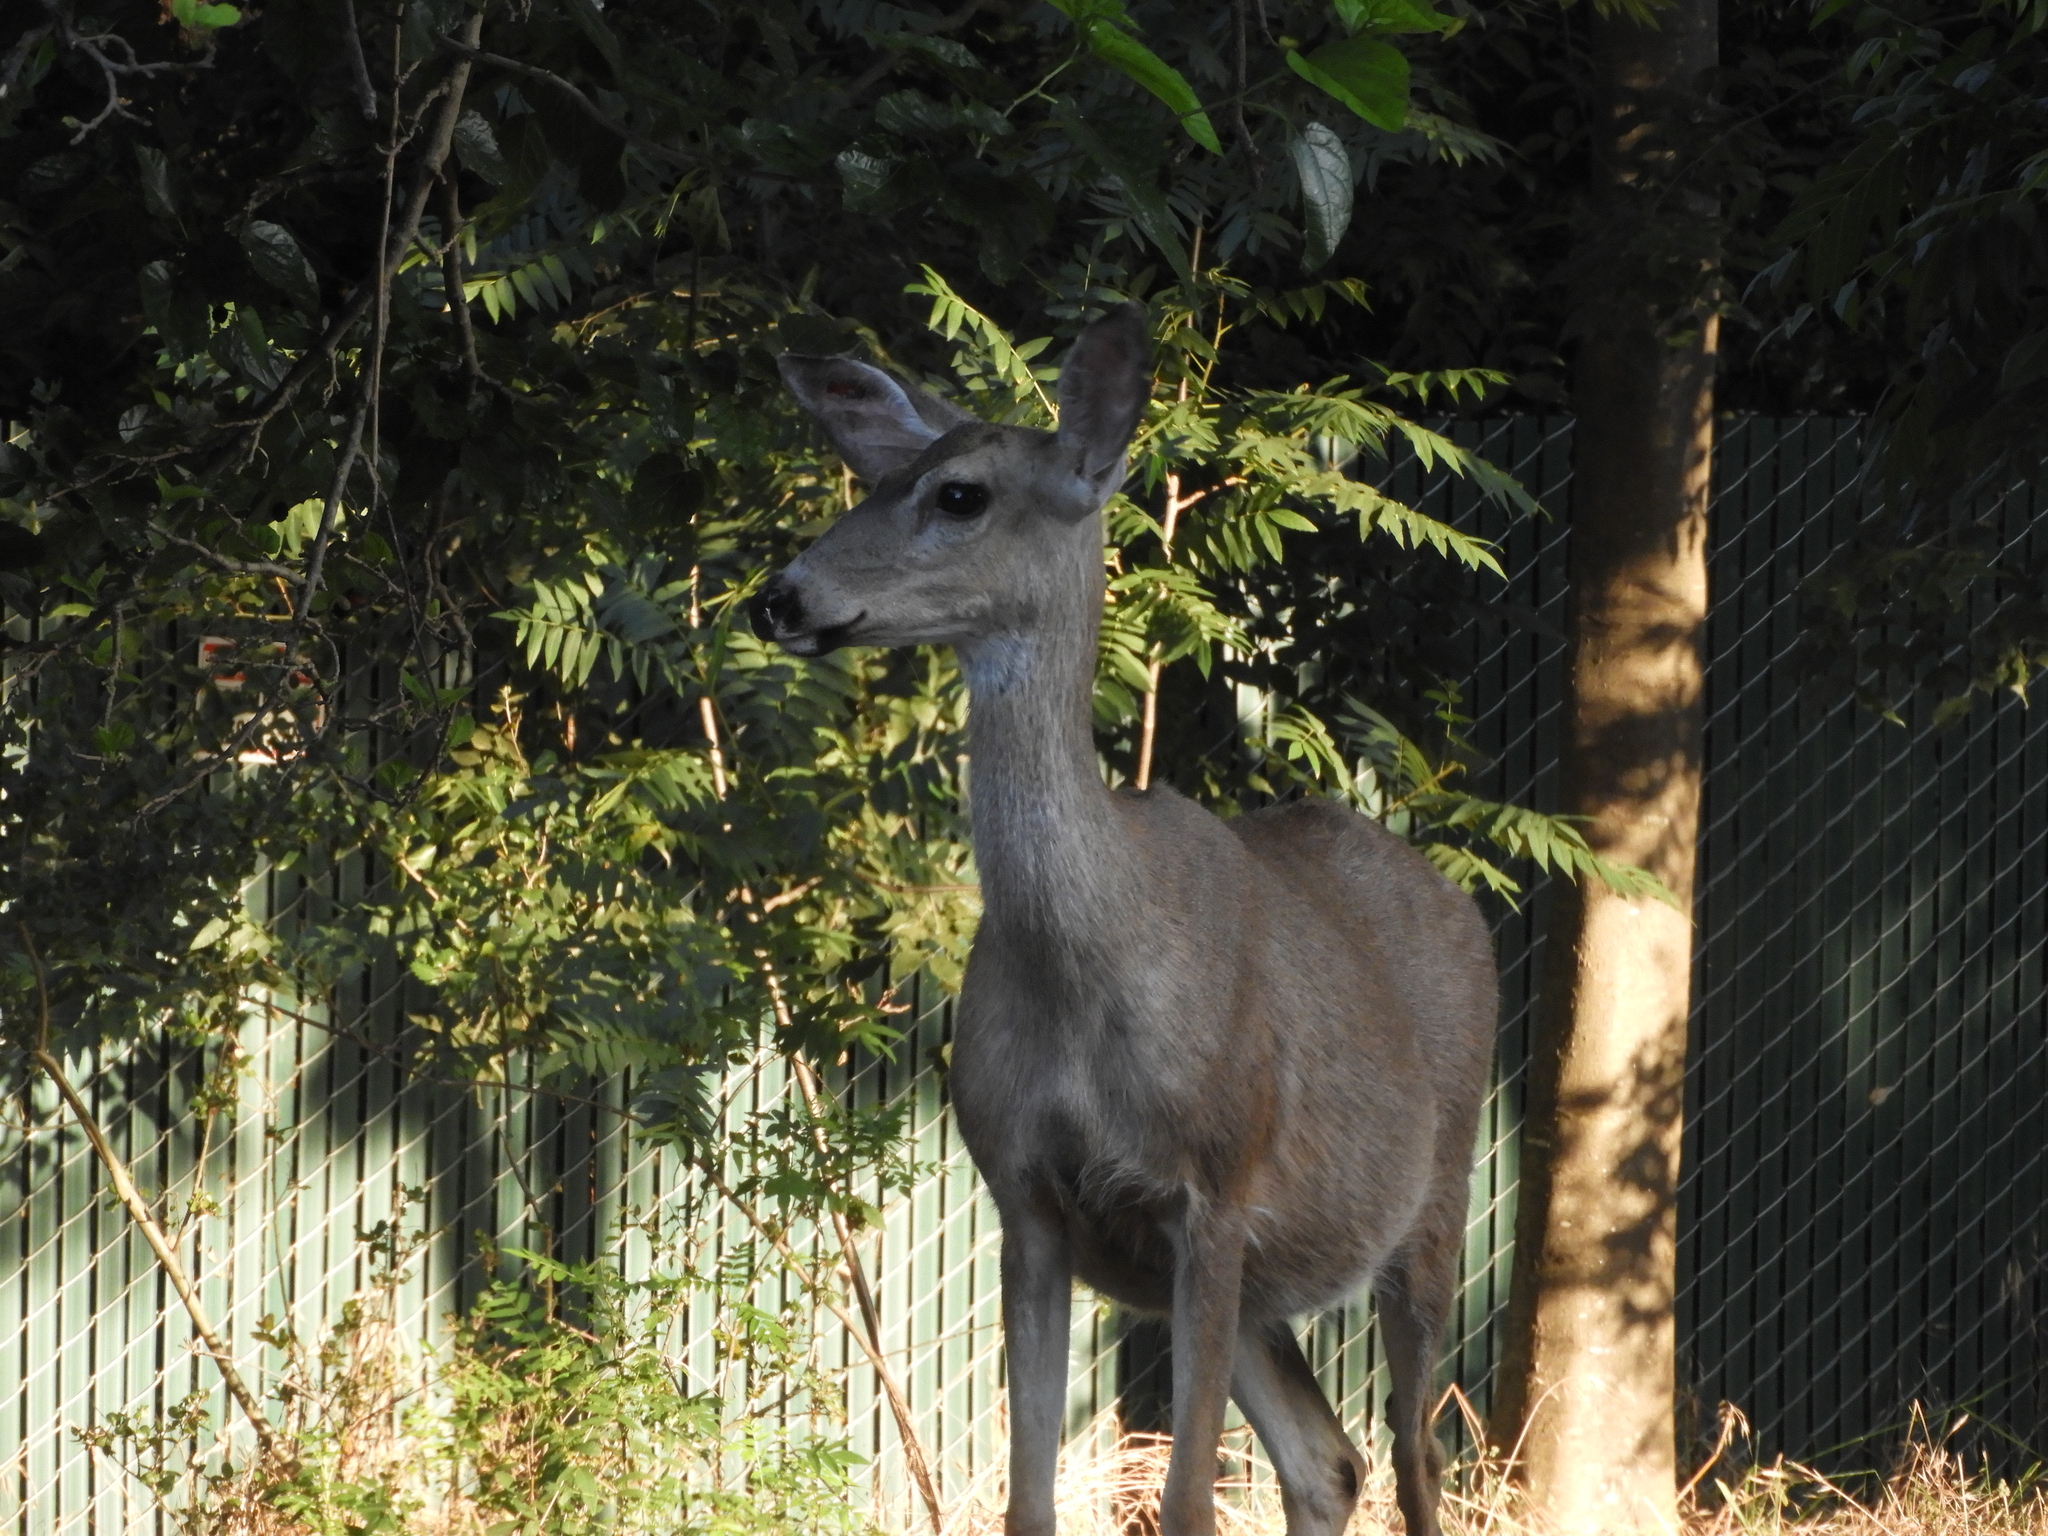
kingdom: Animalia
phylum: Chordata
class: Mammalia
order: Artiodactyla
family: Cervidae
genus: Odocoileus
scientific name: Odocoileus hemionus
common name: Mule deer
